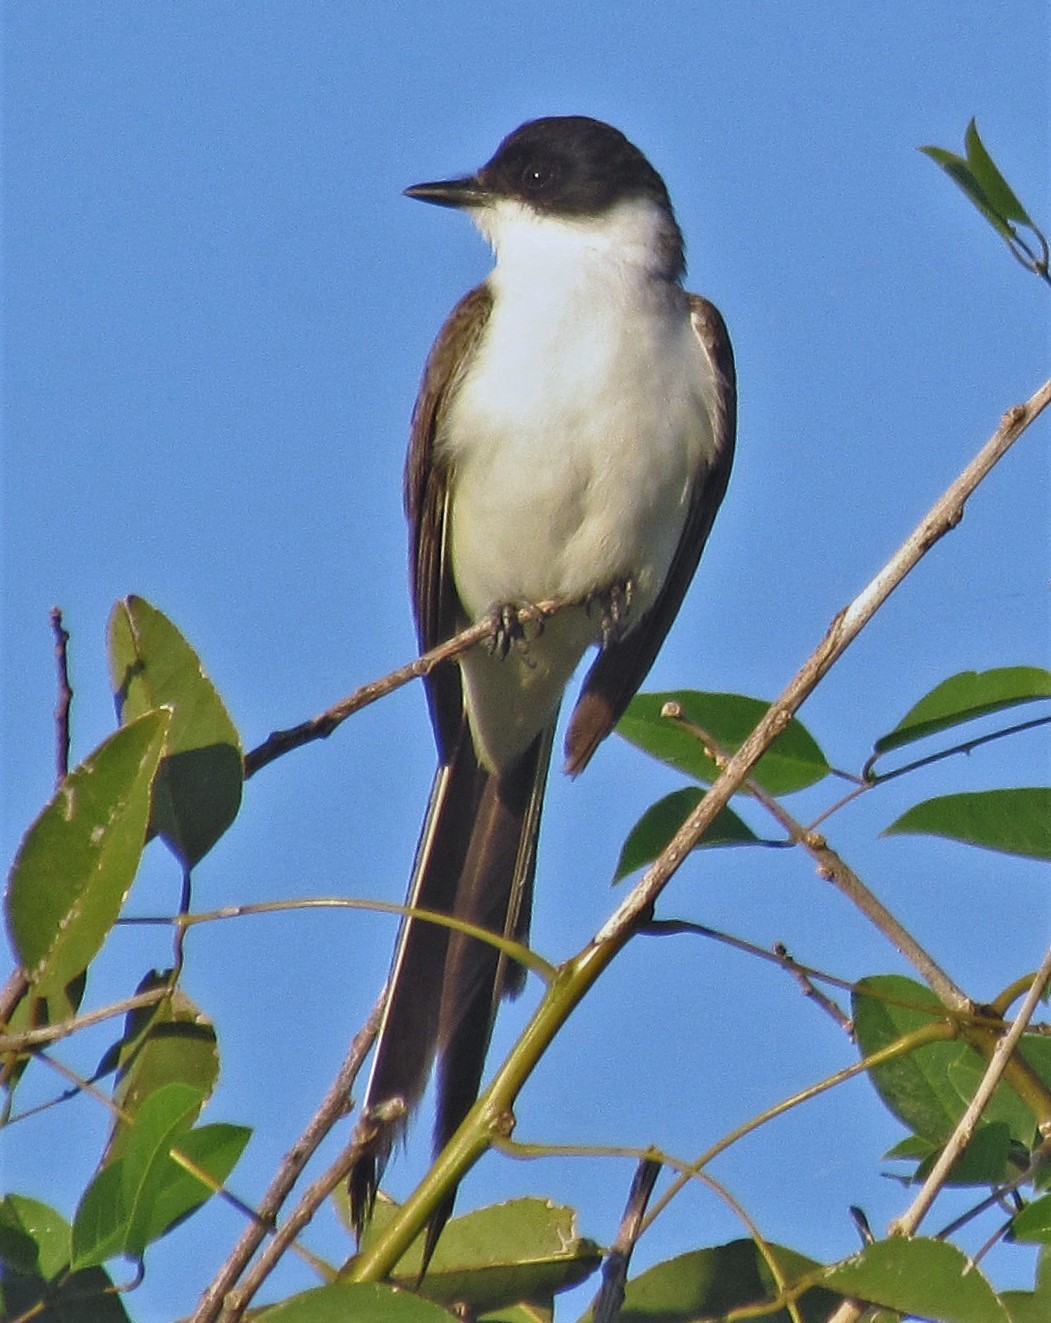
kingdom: Animalia
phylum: Chordata
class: Aves
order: Passeriformes
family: Tyrannidae
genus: Tyrannus
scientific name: Tyrannus savana
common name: Fork-tailed flycatcher
